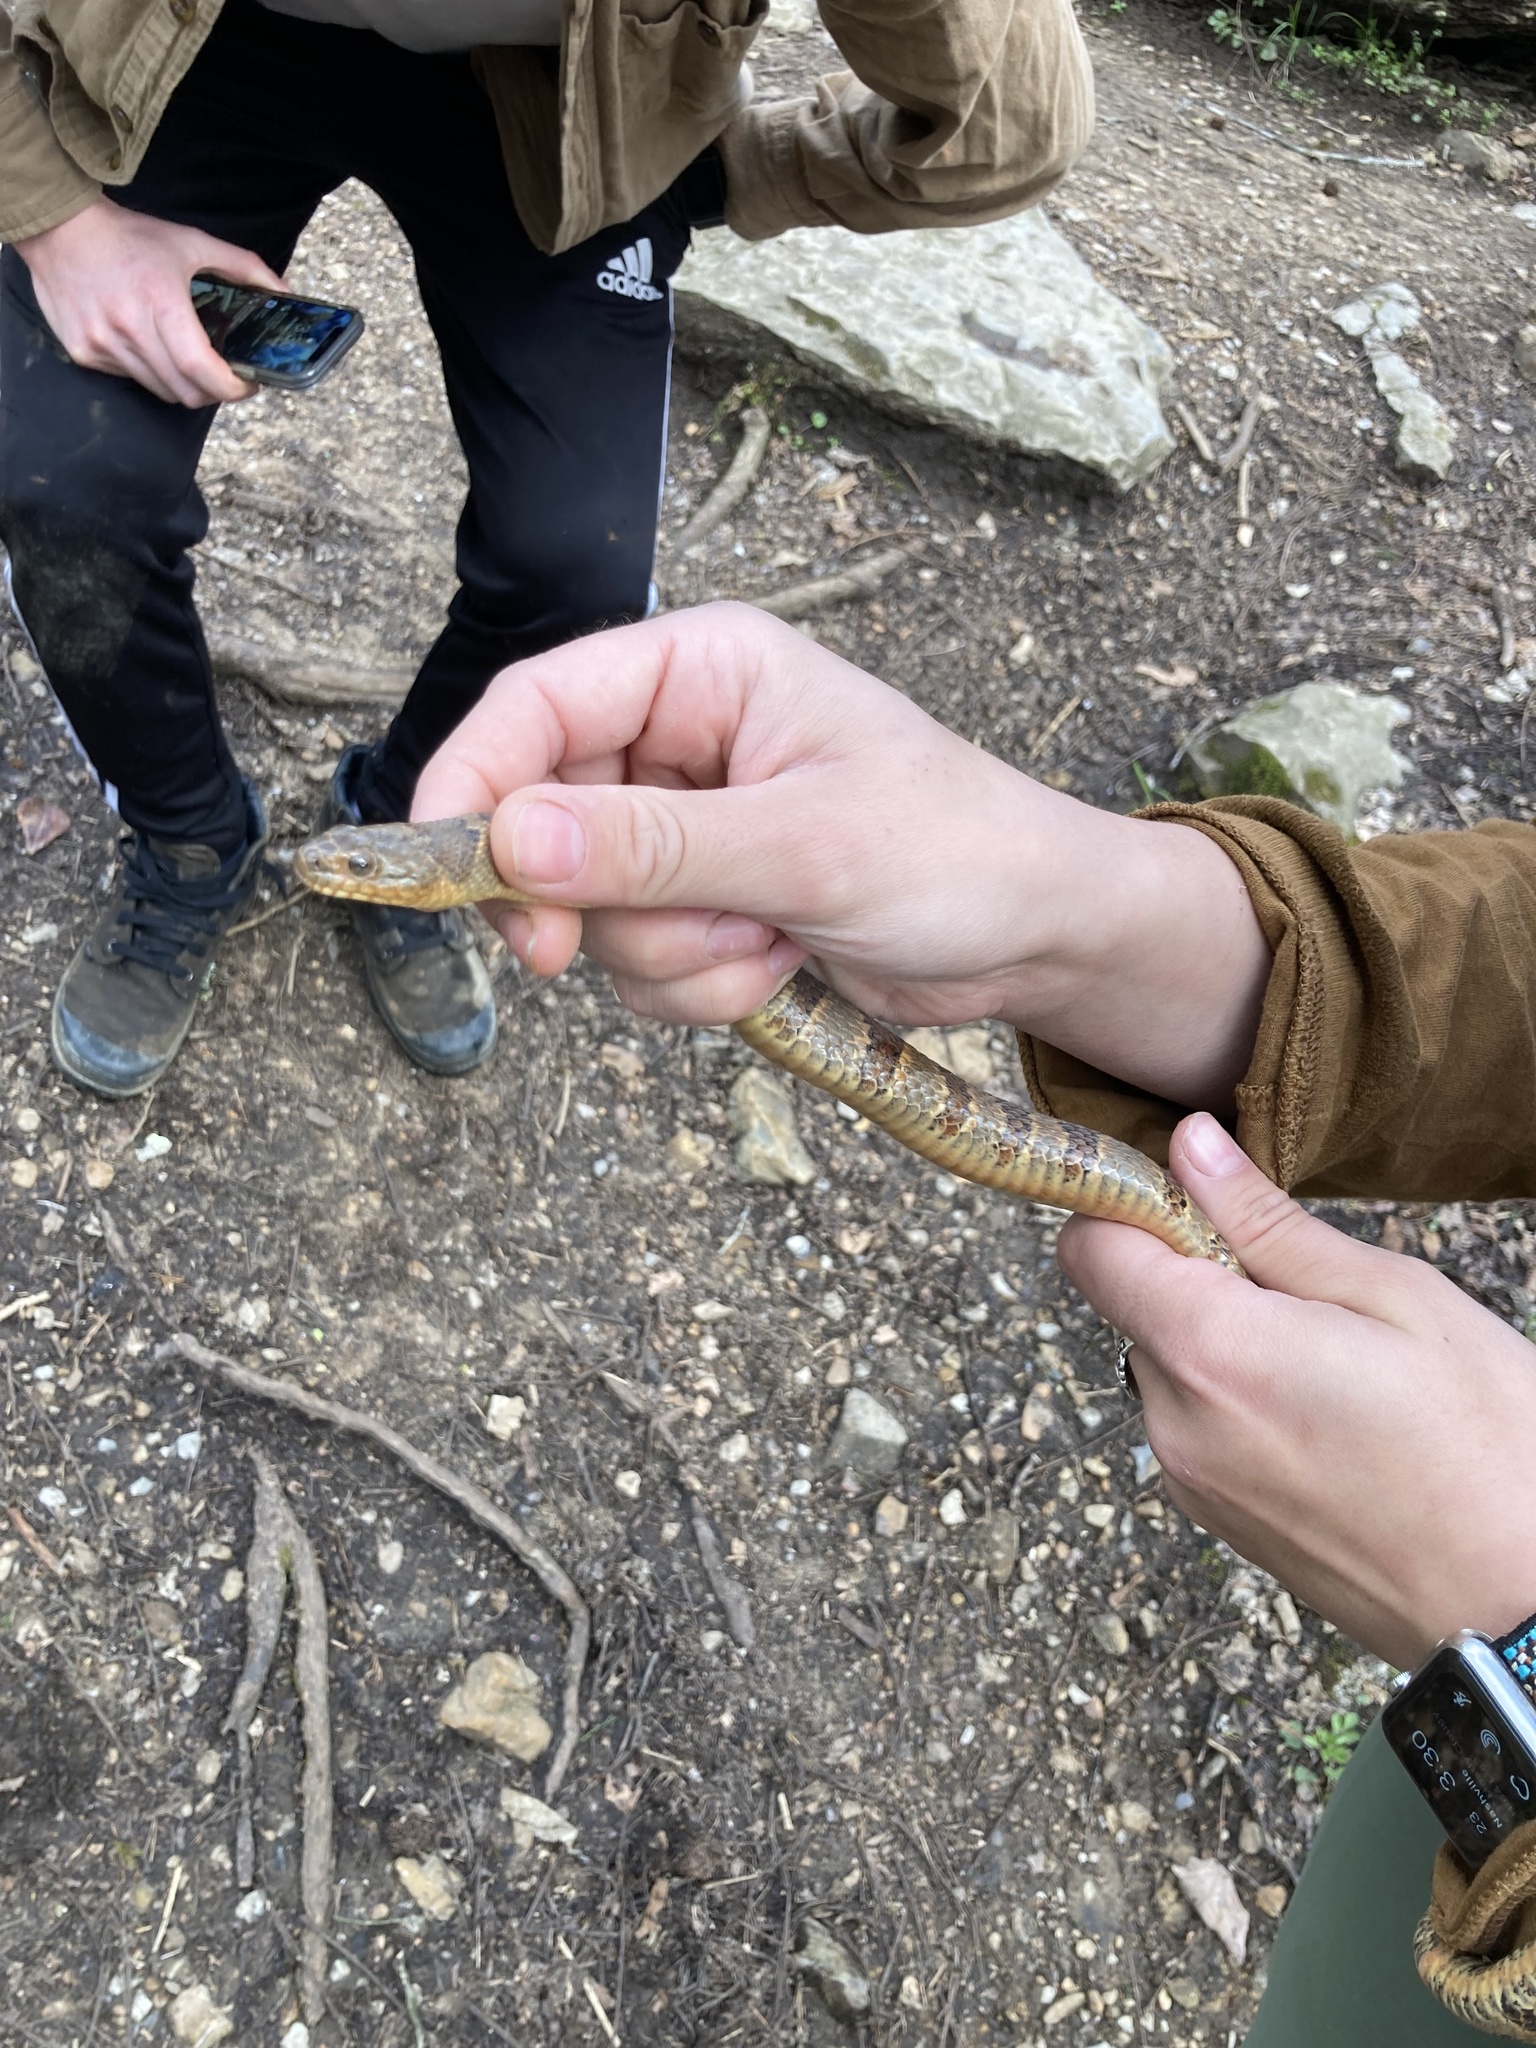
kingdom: Animalia
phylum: Chordata
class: Squamata
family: Colubridae
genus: Nerodia
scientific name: Nerodia sipedon
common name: Northern water snake
